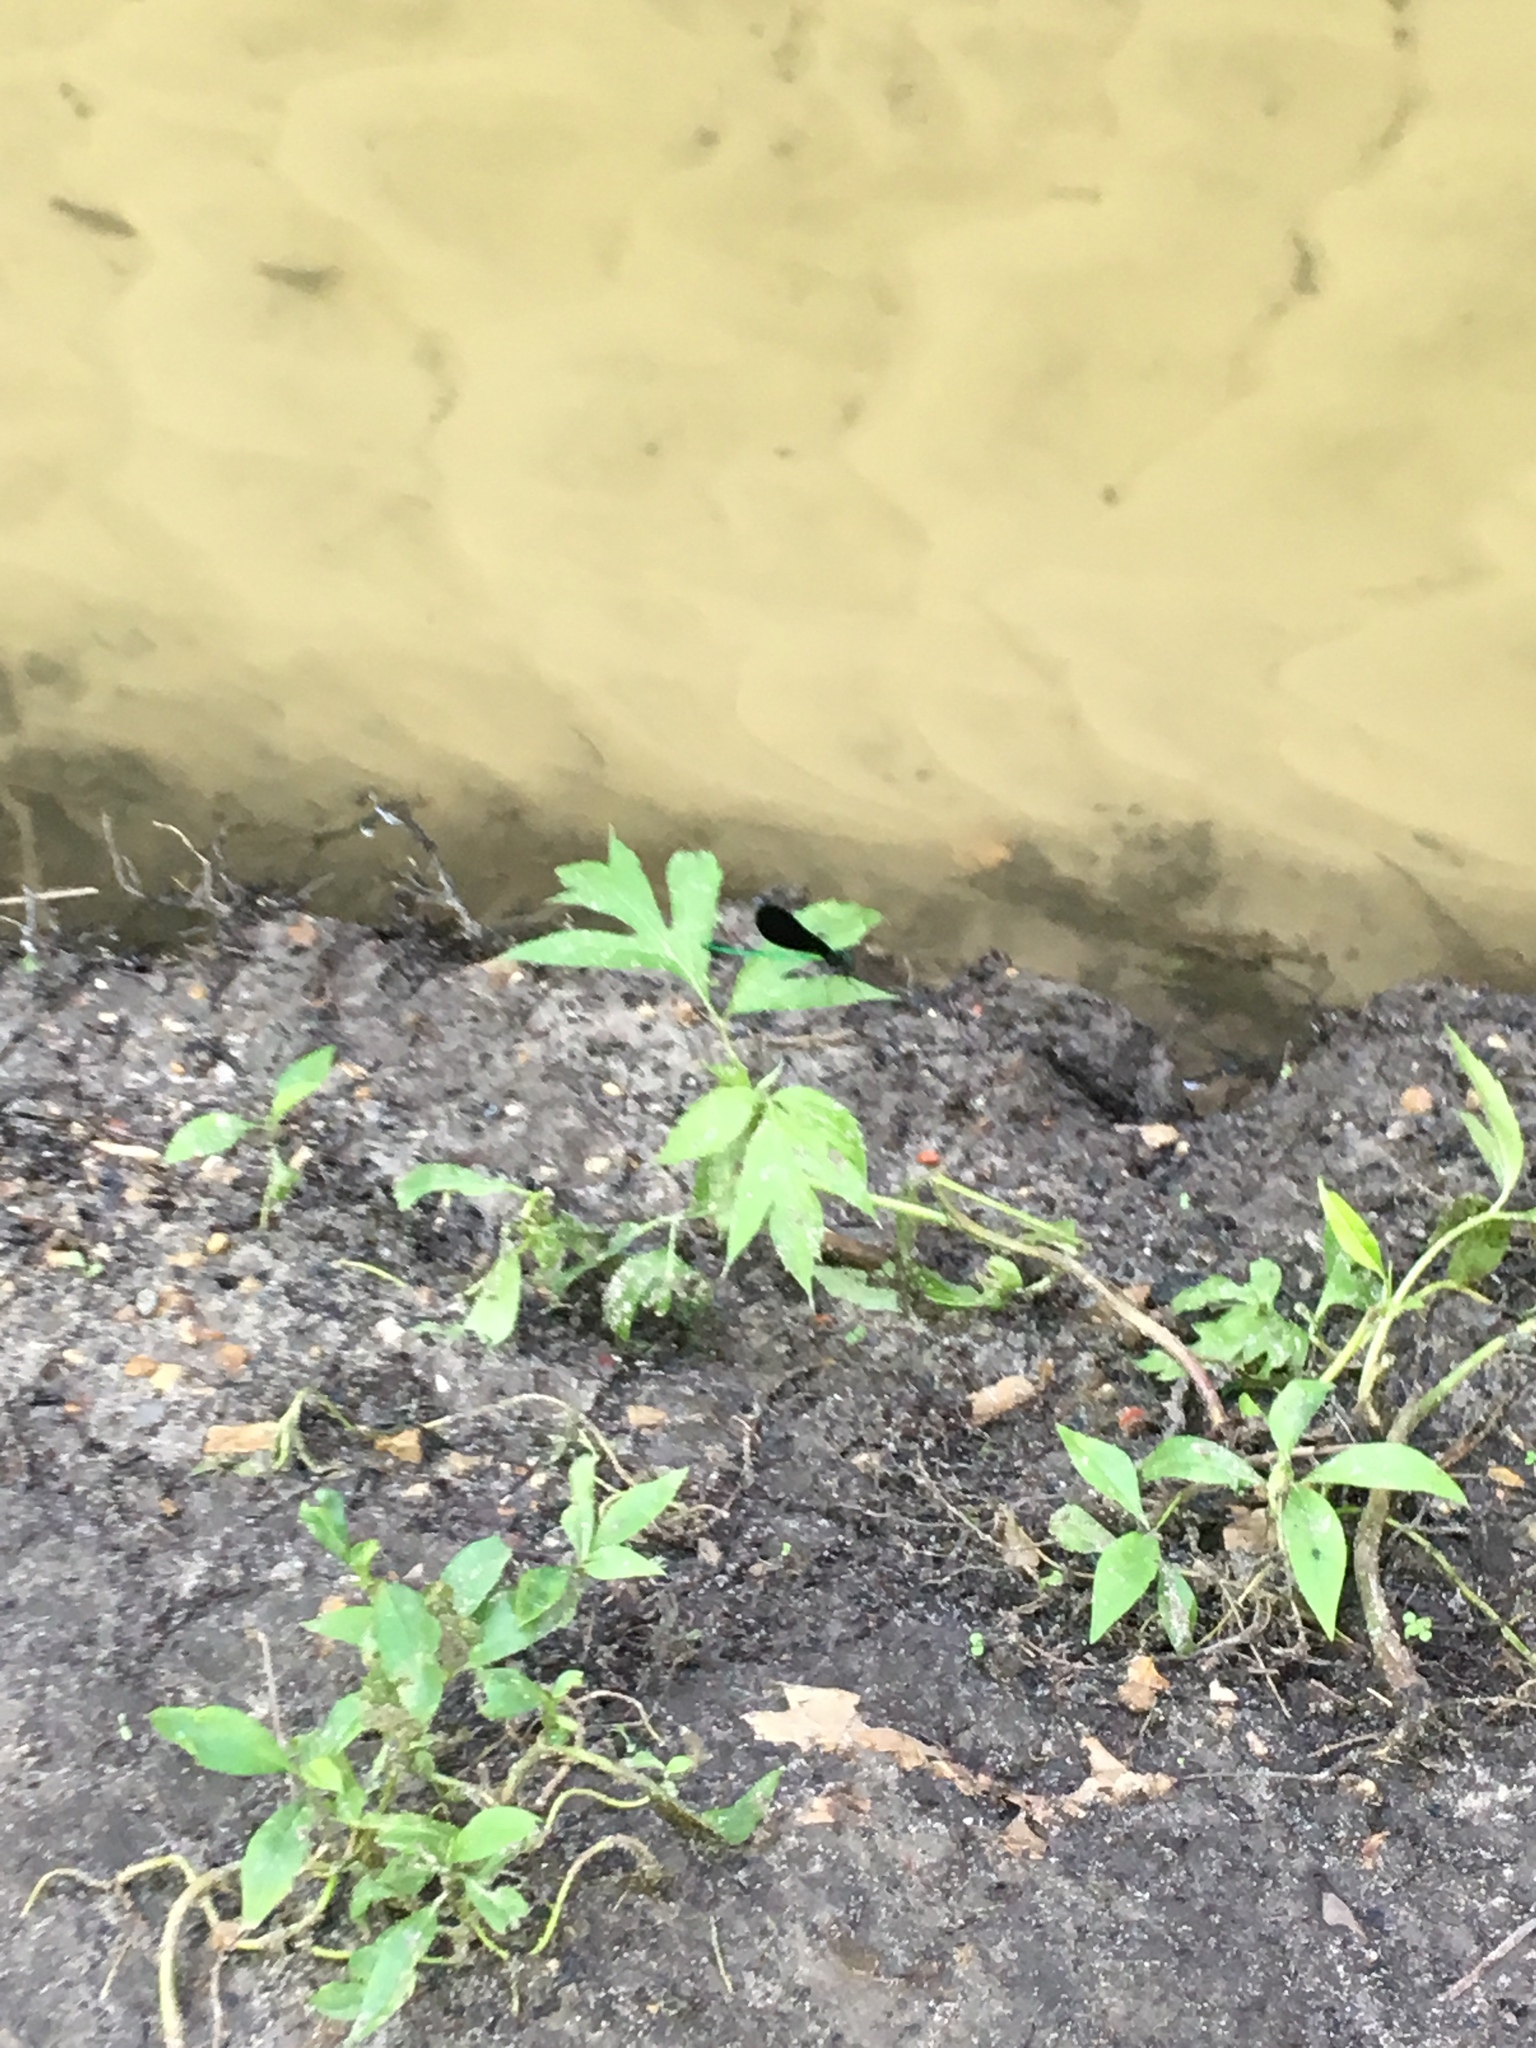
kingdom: Animalia
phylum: Arthropoda
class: Insecta
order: Odonata
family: Calopterygidae
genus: Calopteryx
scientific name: Calopteryx maculata
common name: Ebony jewelwing
